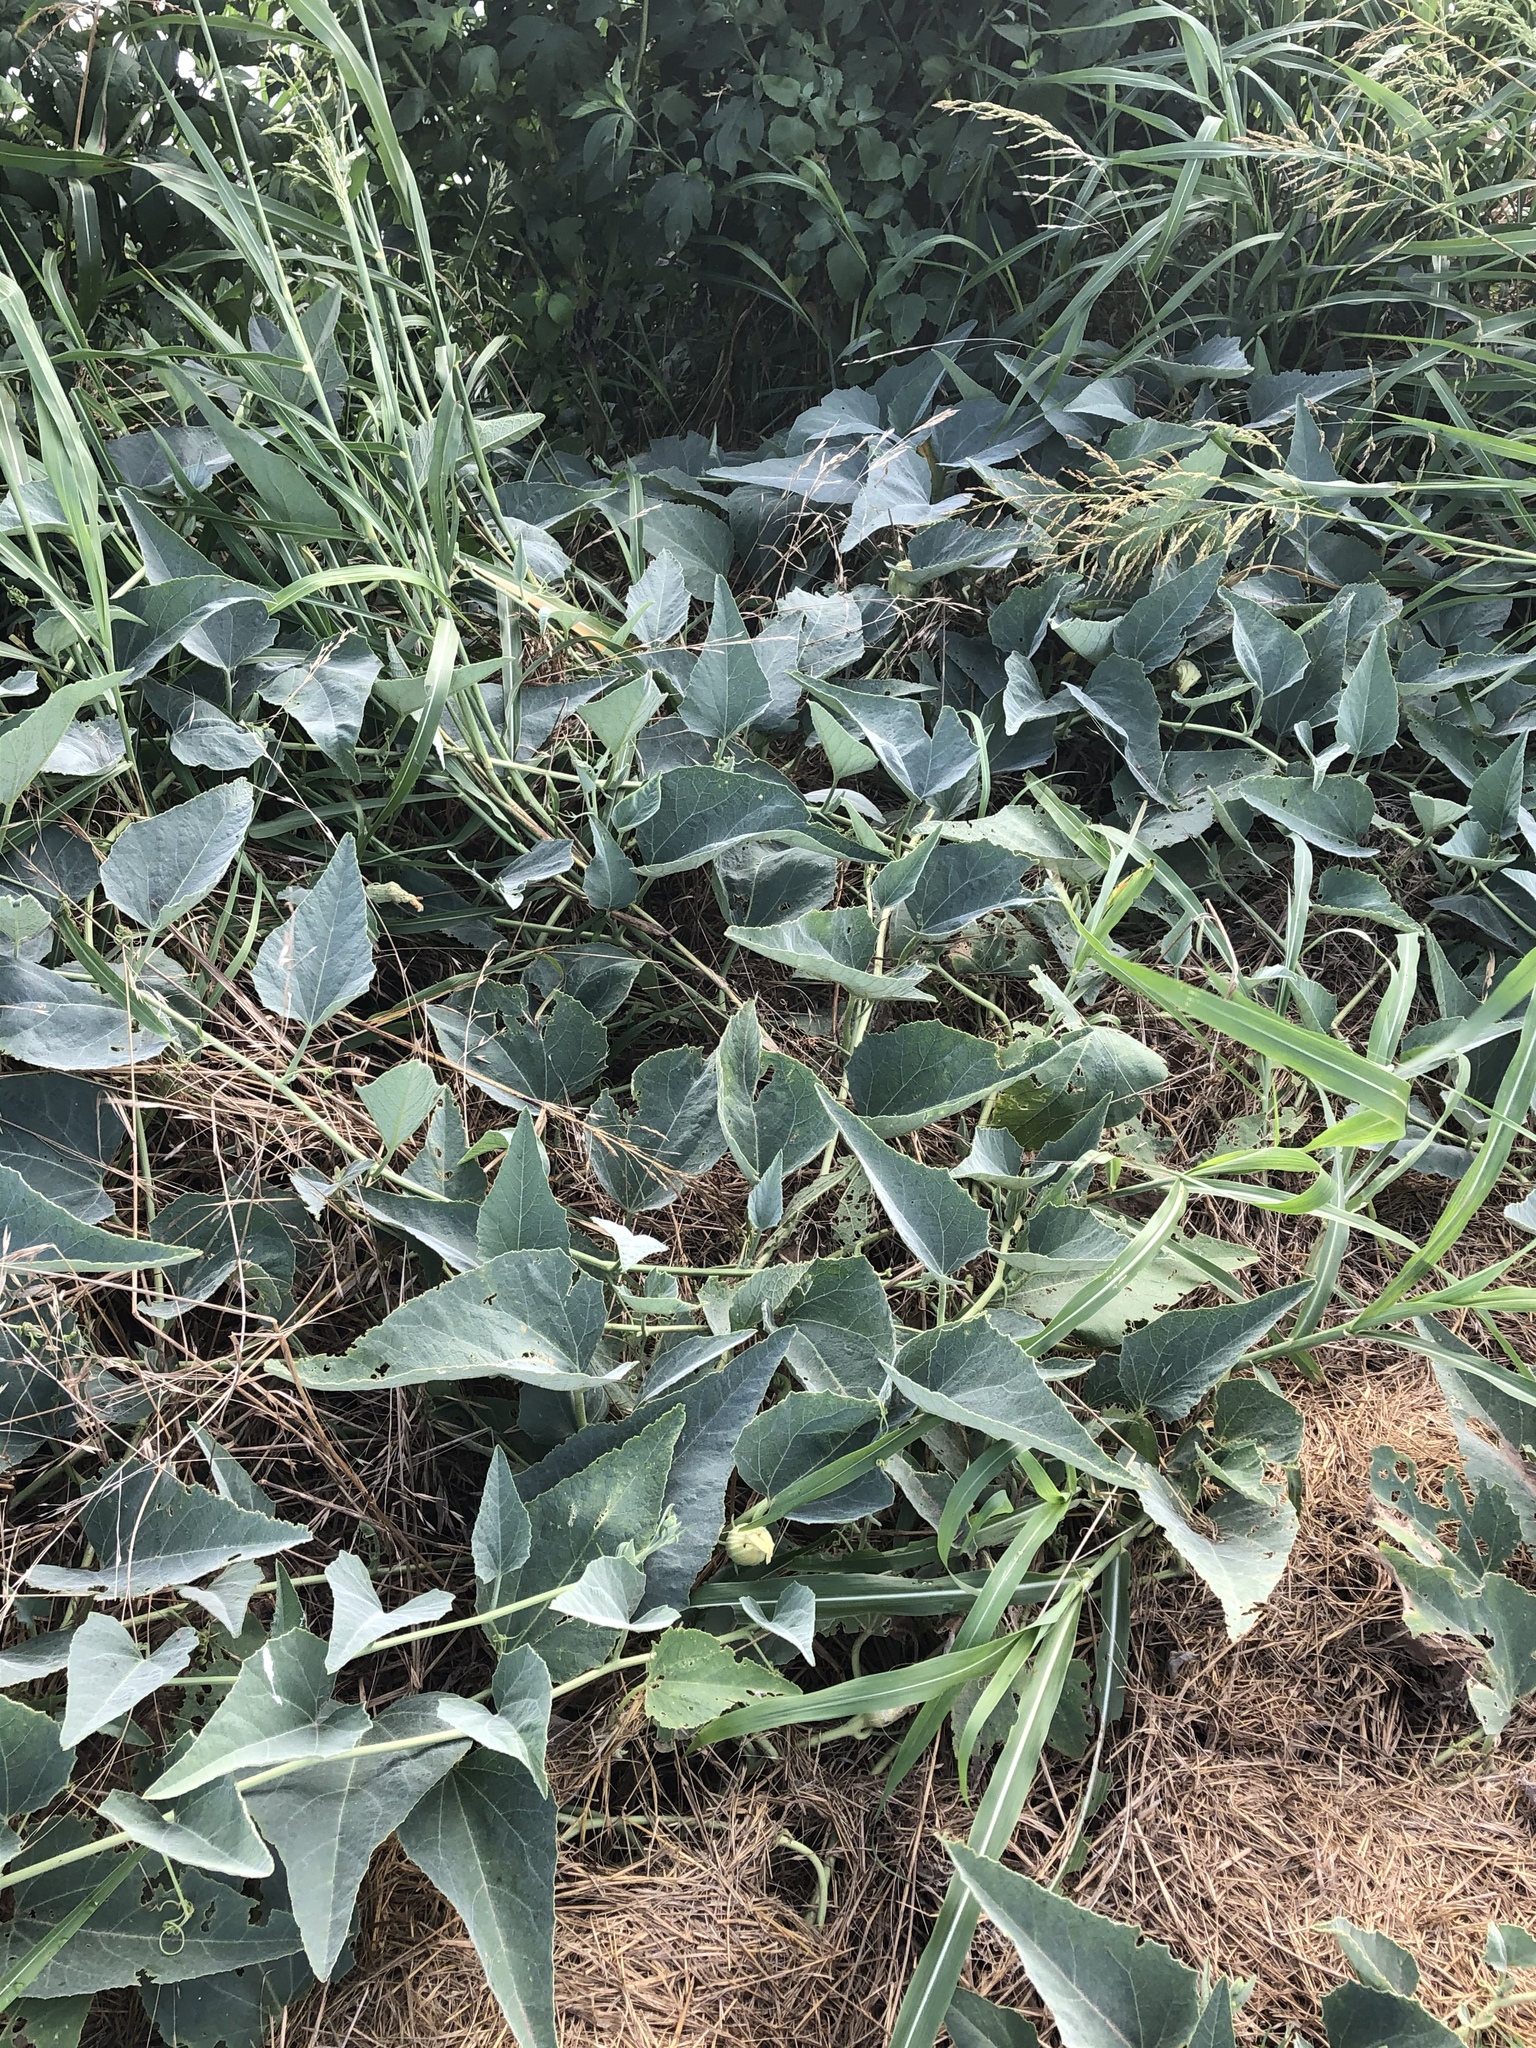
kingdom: Plantae
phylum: Tracheophyta
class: Magnoliopsida
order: Cucurbitales
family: Cucurbitaceae
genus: Cucurbita
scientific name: Cucurbita foetidissima
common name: Buffalo gourd
